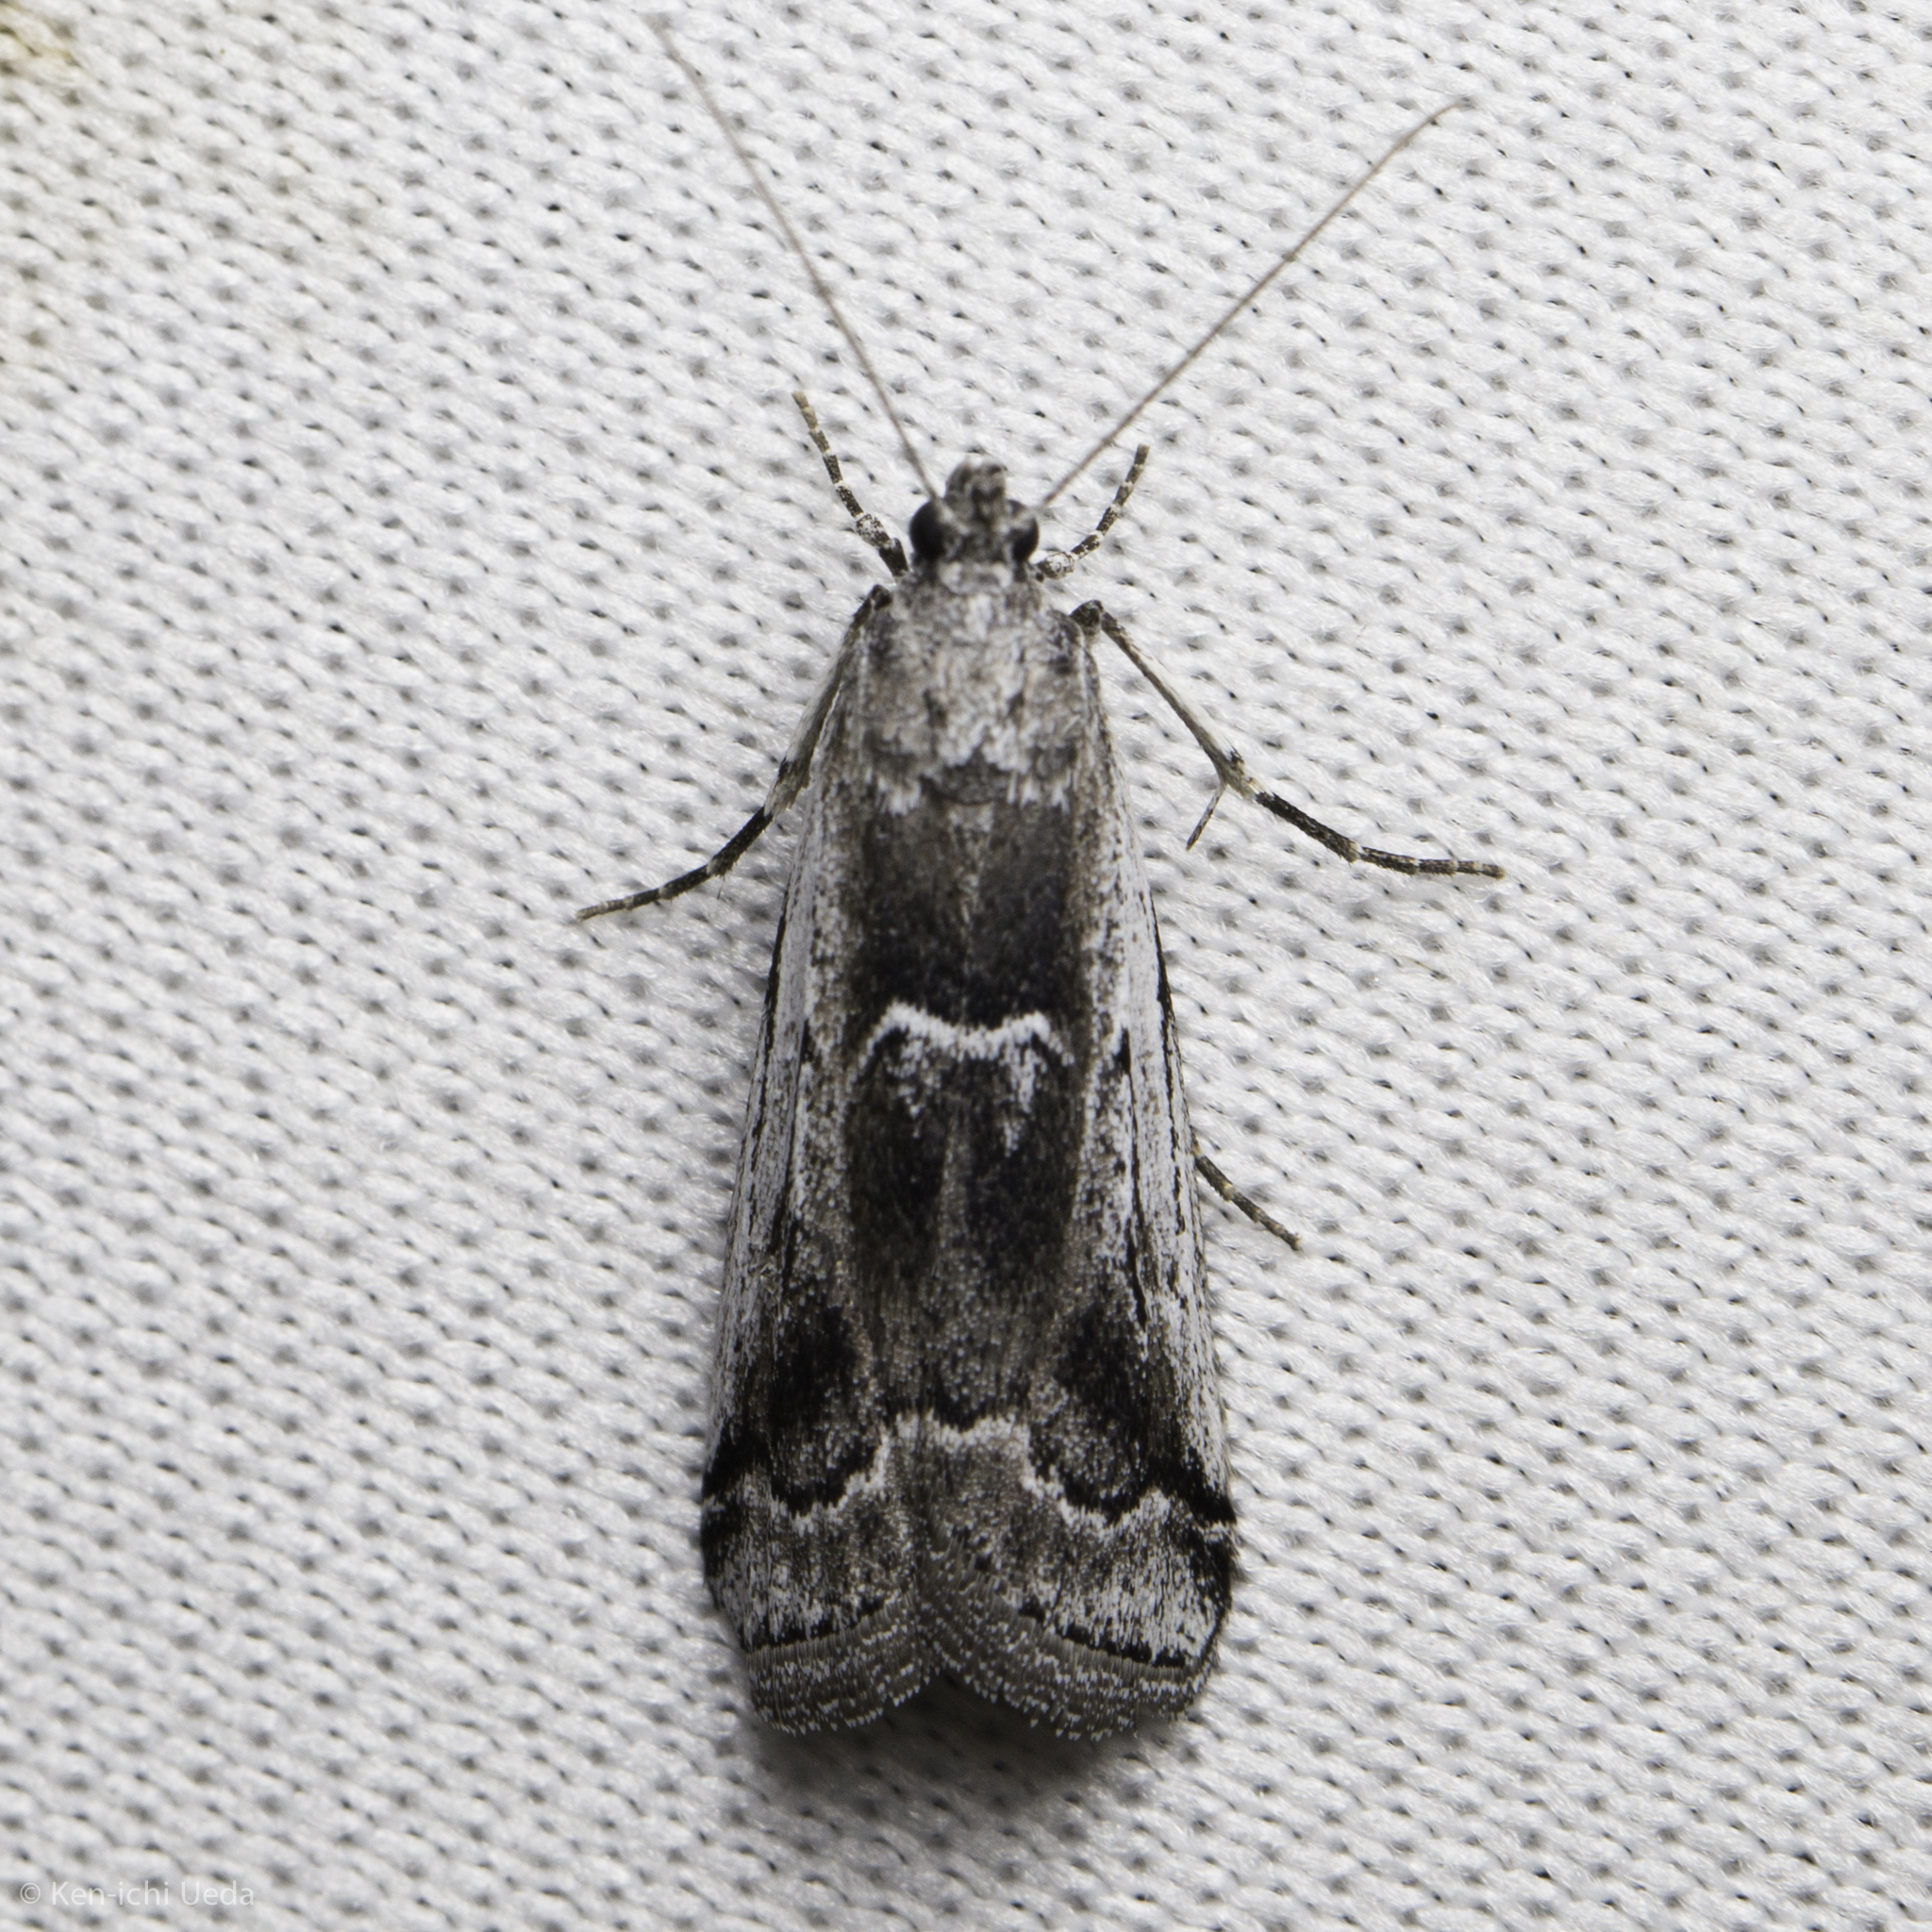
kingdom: Animalia
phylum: Arthropoda
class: Insecta
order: Lepidoptera
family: Pyralidae
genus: Ambesa
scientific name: Ambesa walsinghami
